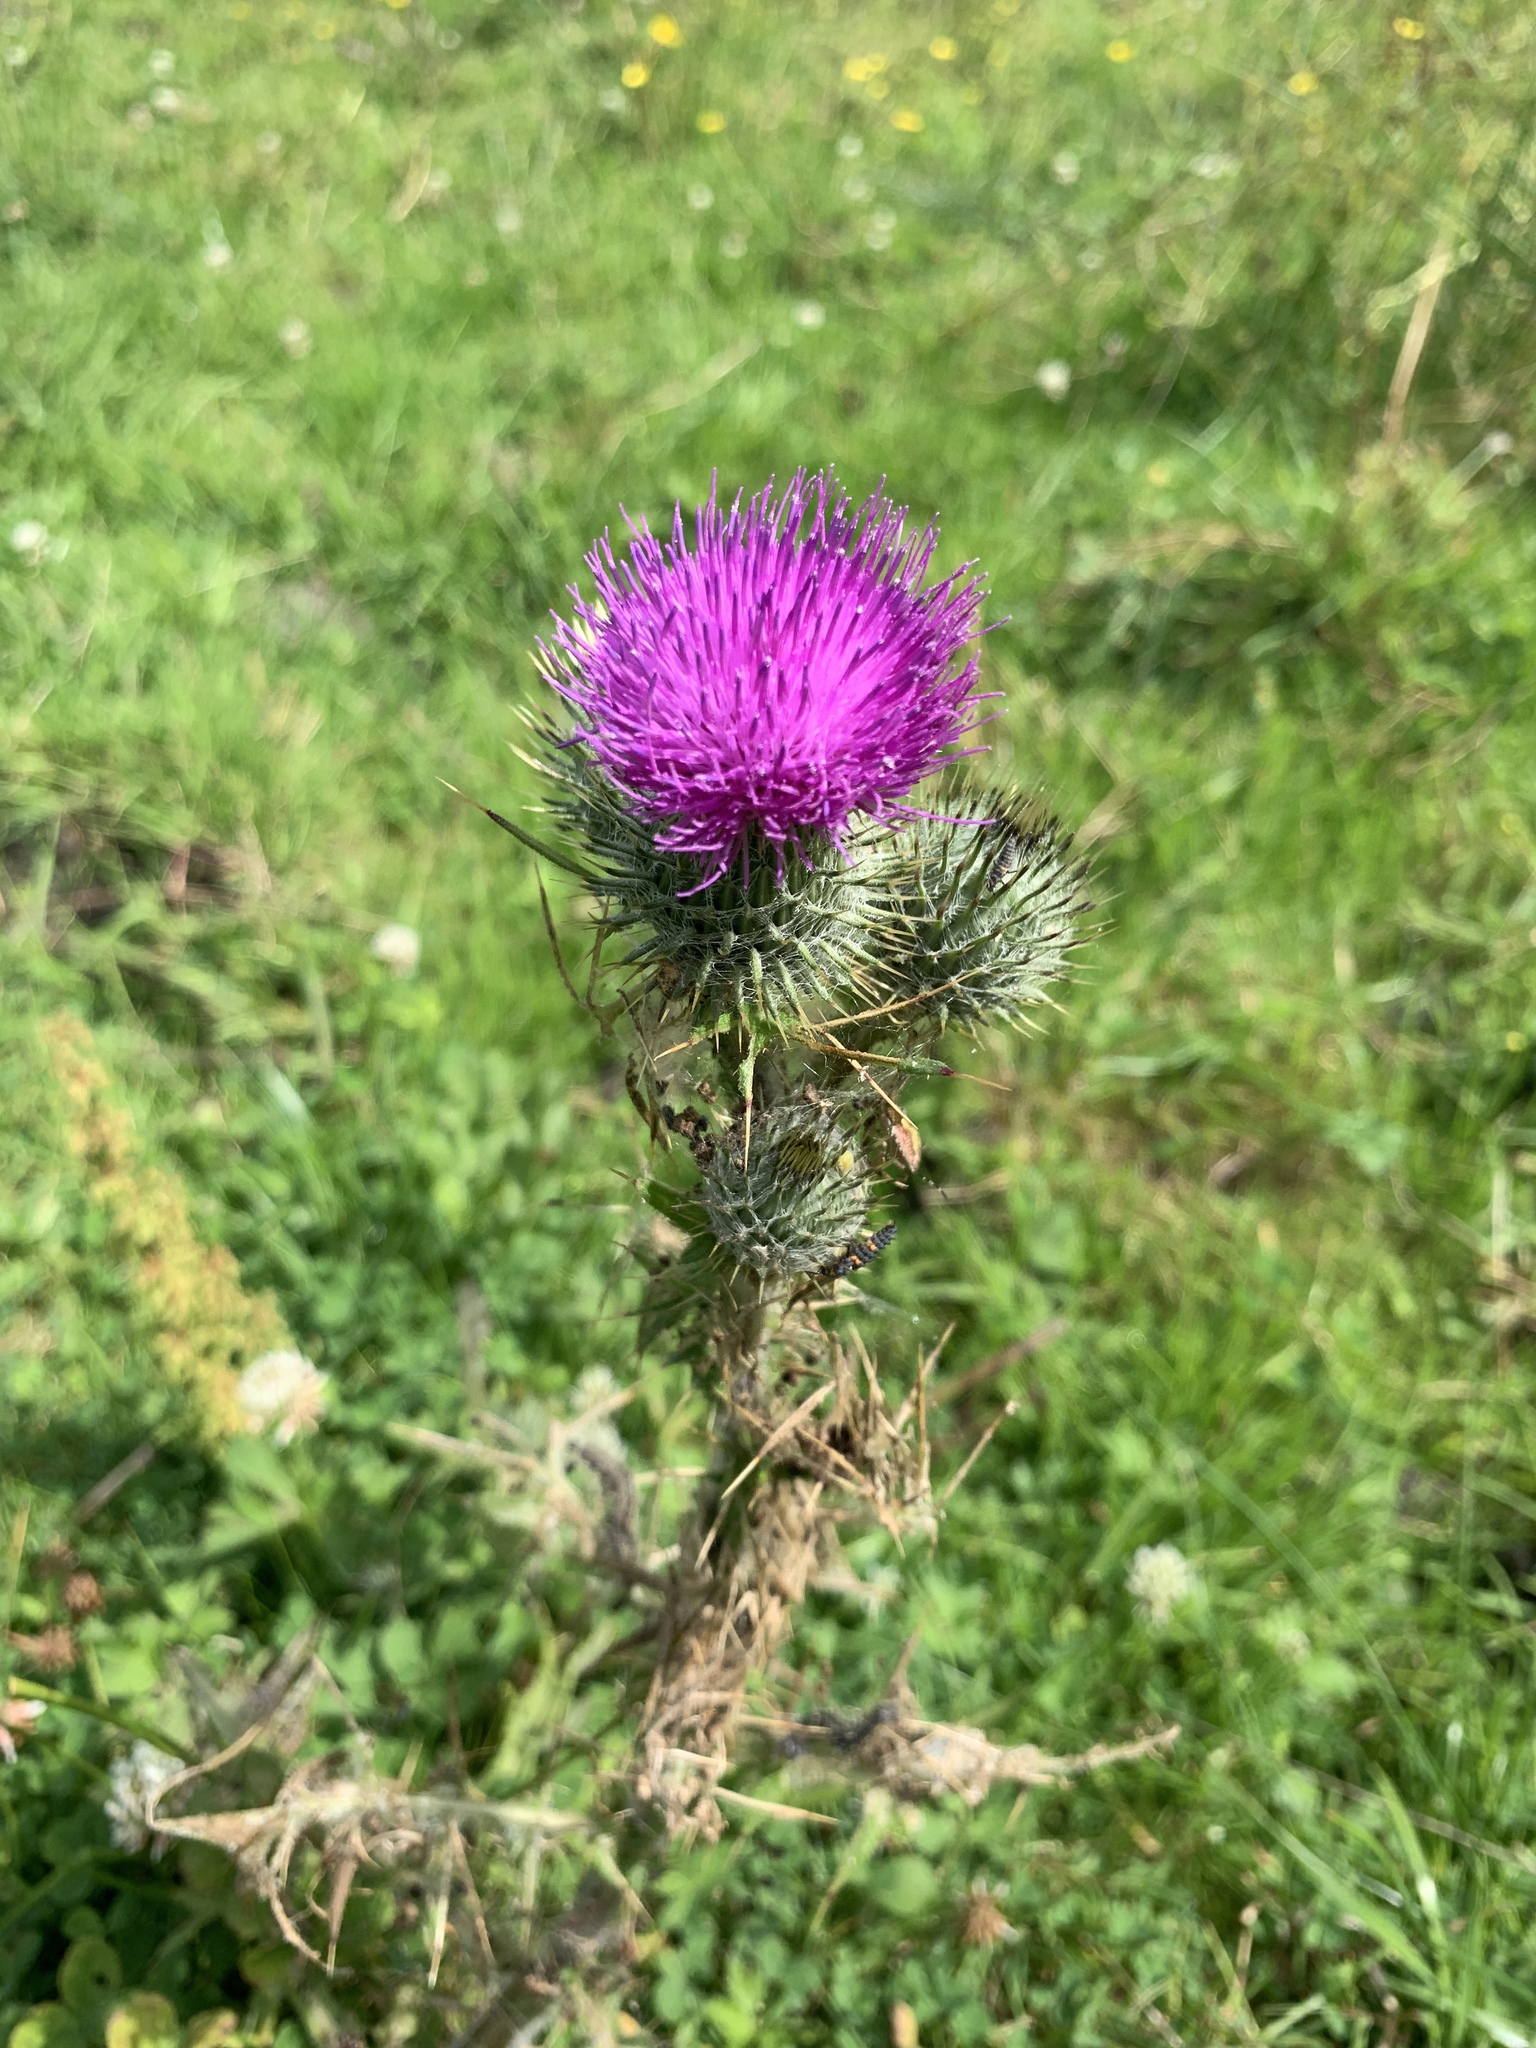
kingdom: Plantae
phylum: Tracheophyta
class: Magnoliopsida
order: Asterales
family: Asteraceae
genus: Cirsium
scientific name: Cirsium vulgare
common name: Bull thistle
